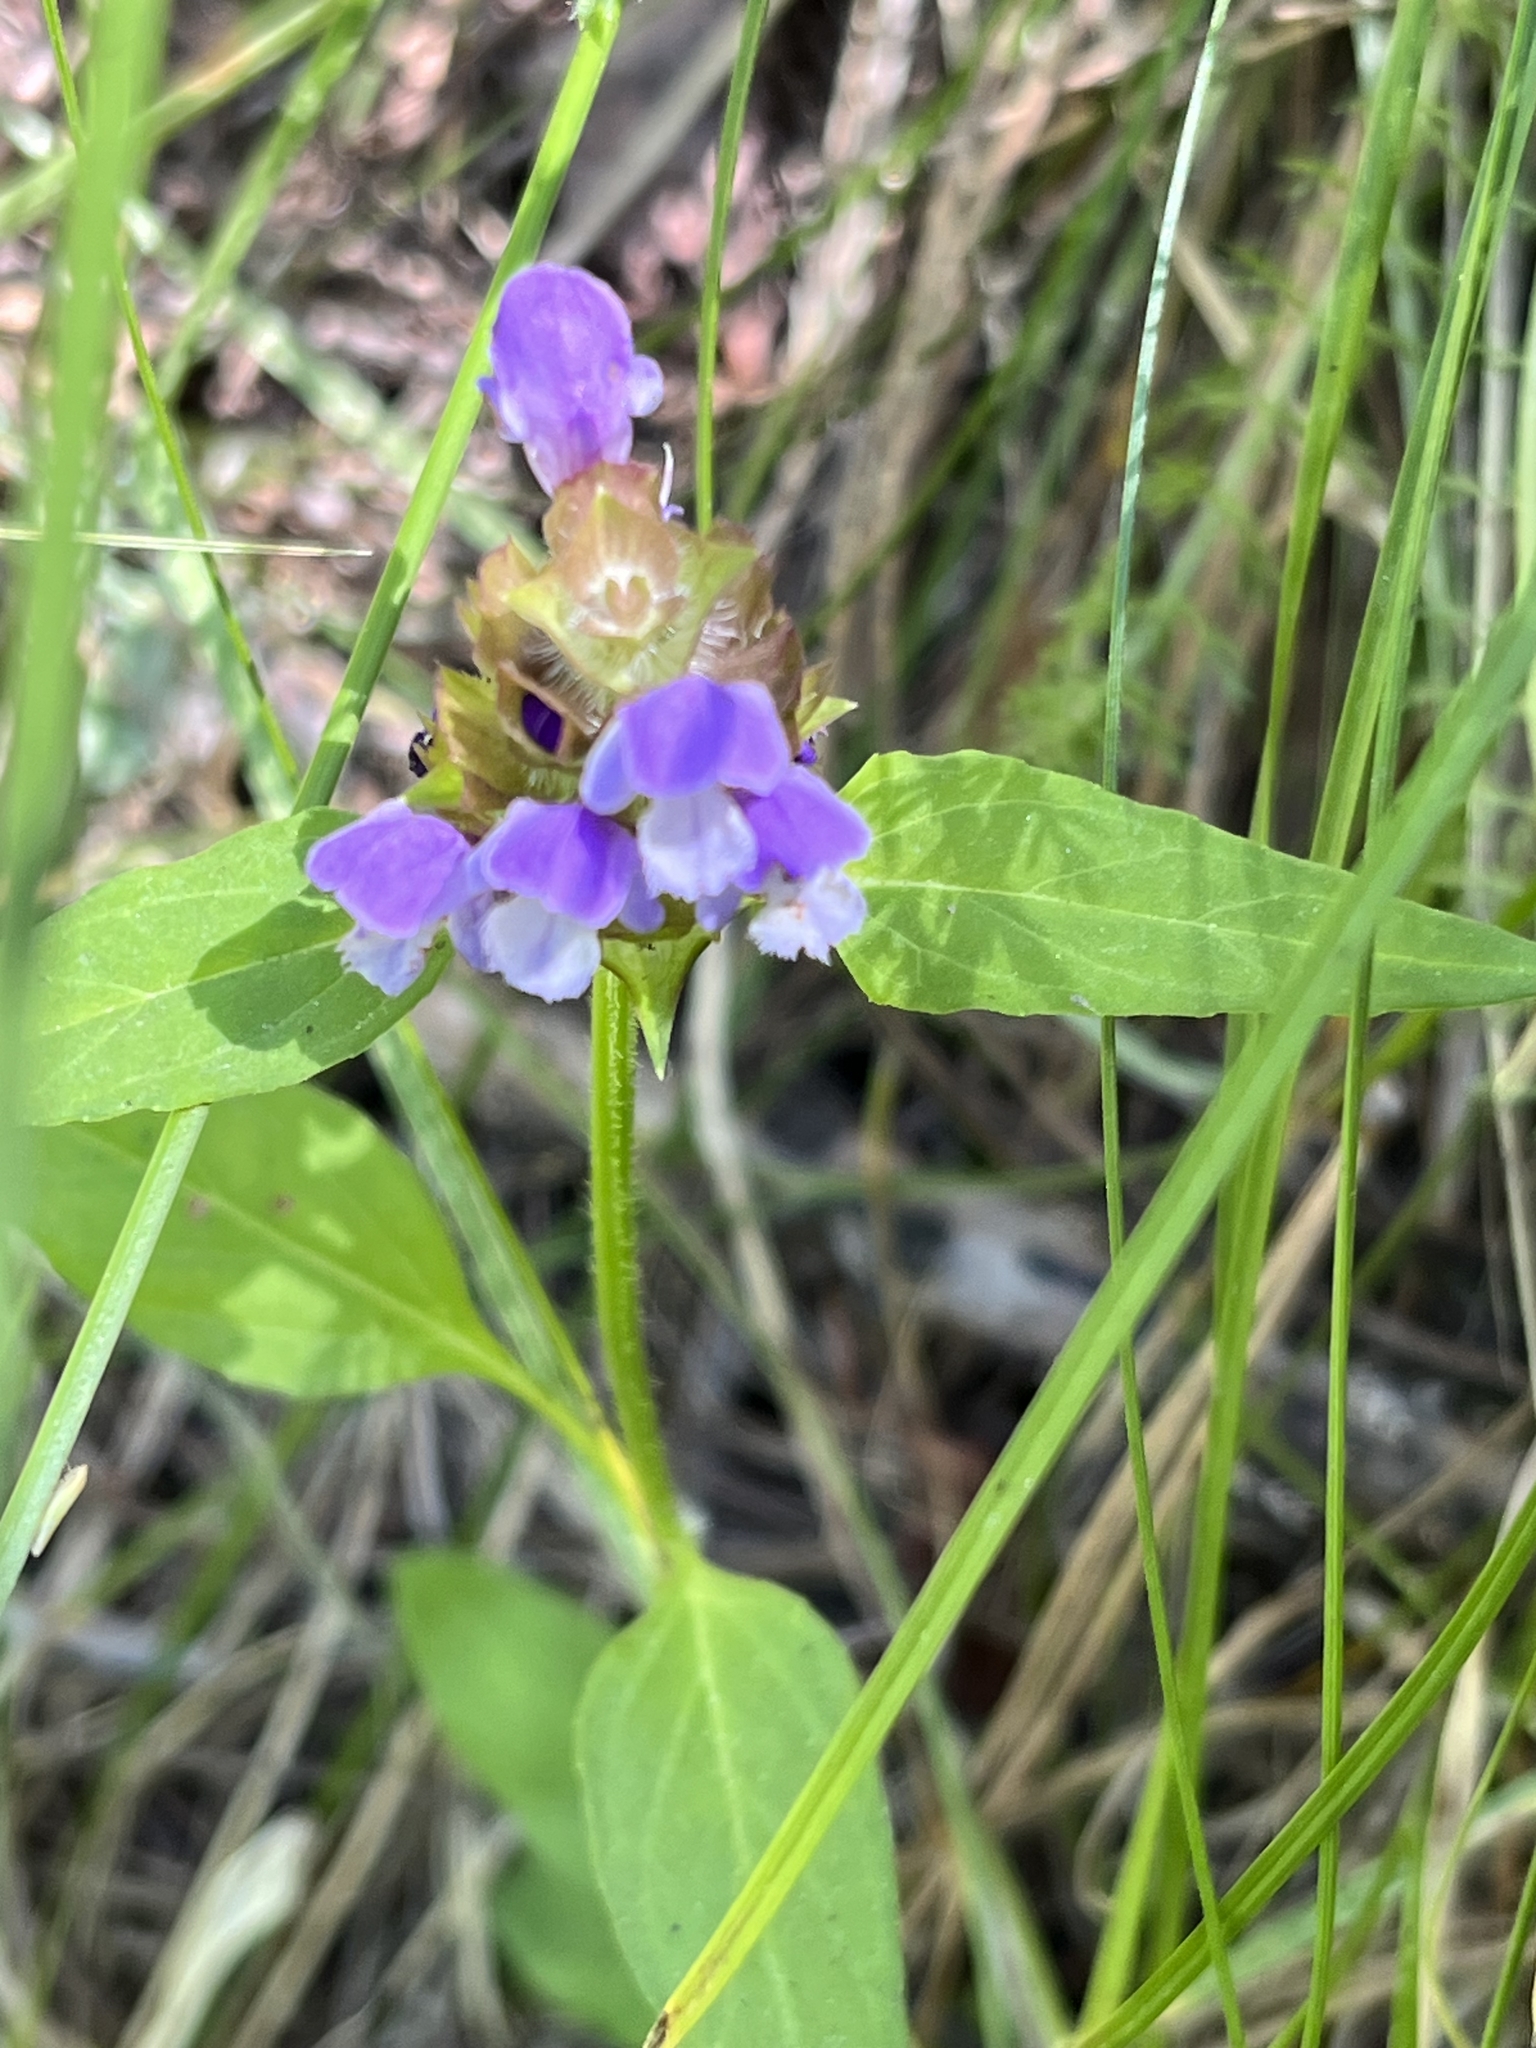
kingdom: Plantae
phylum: Tracheophyta
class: Magnoliopsida
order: Lamiales
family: Lamiaceae
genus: Prunella
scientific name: Prunella vulgaris
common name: Heal-all
